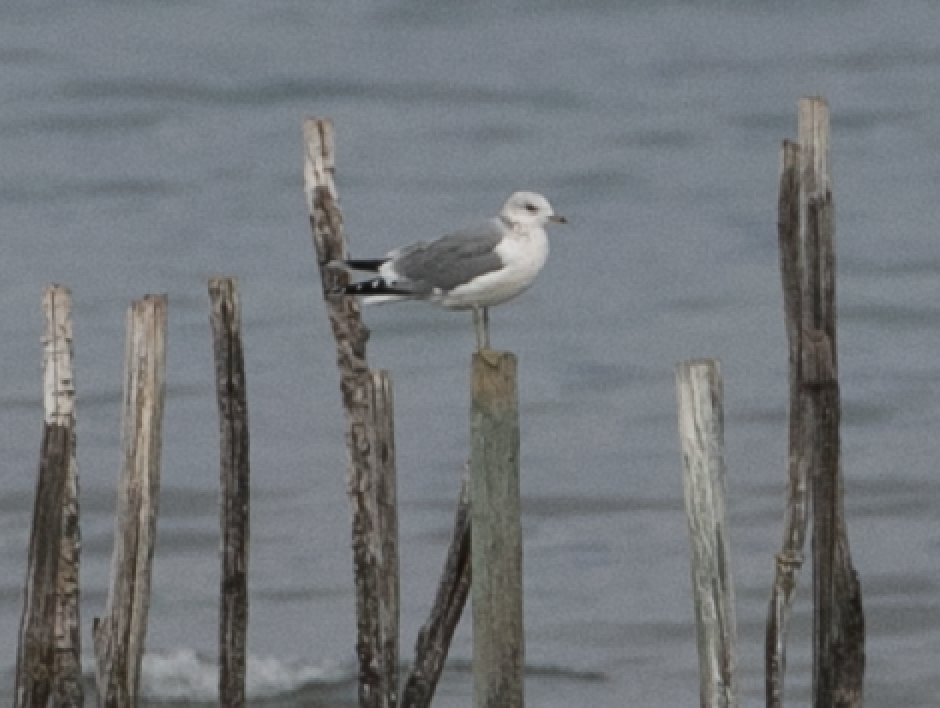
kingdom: Animalia
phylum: Chordata
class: Aves
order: Charadriiformes
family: Laridae
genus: Larus
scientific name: Larus canus
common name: Mew gull
